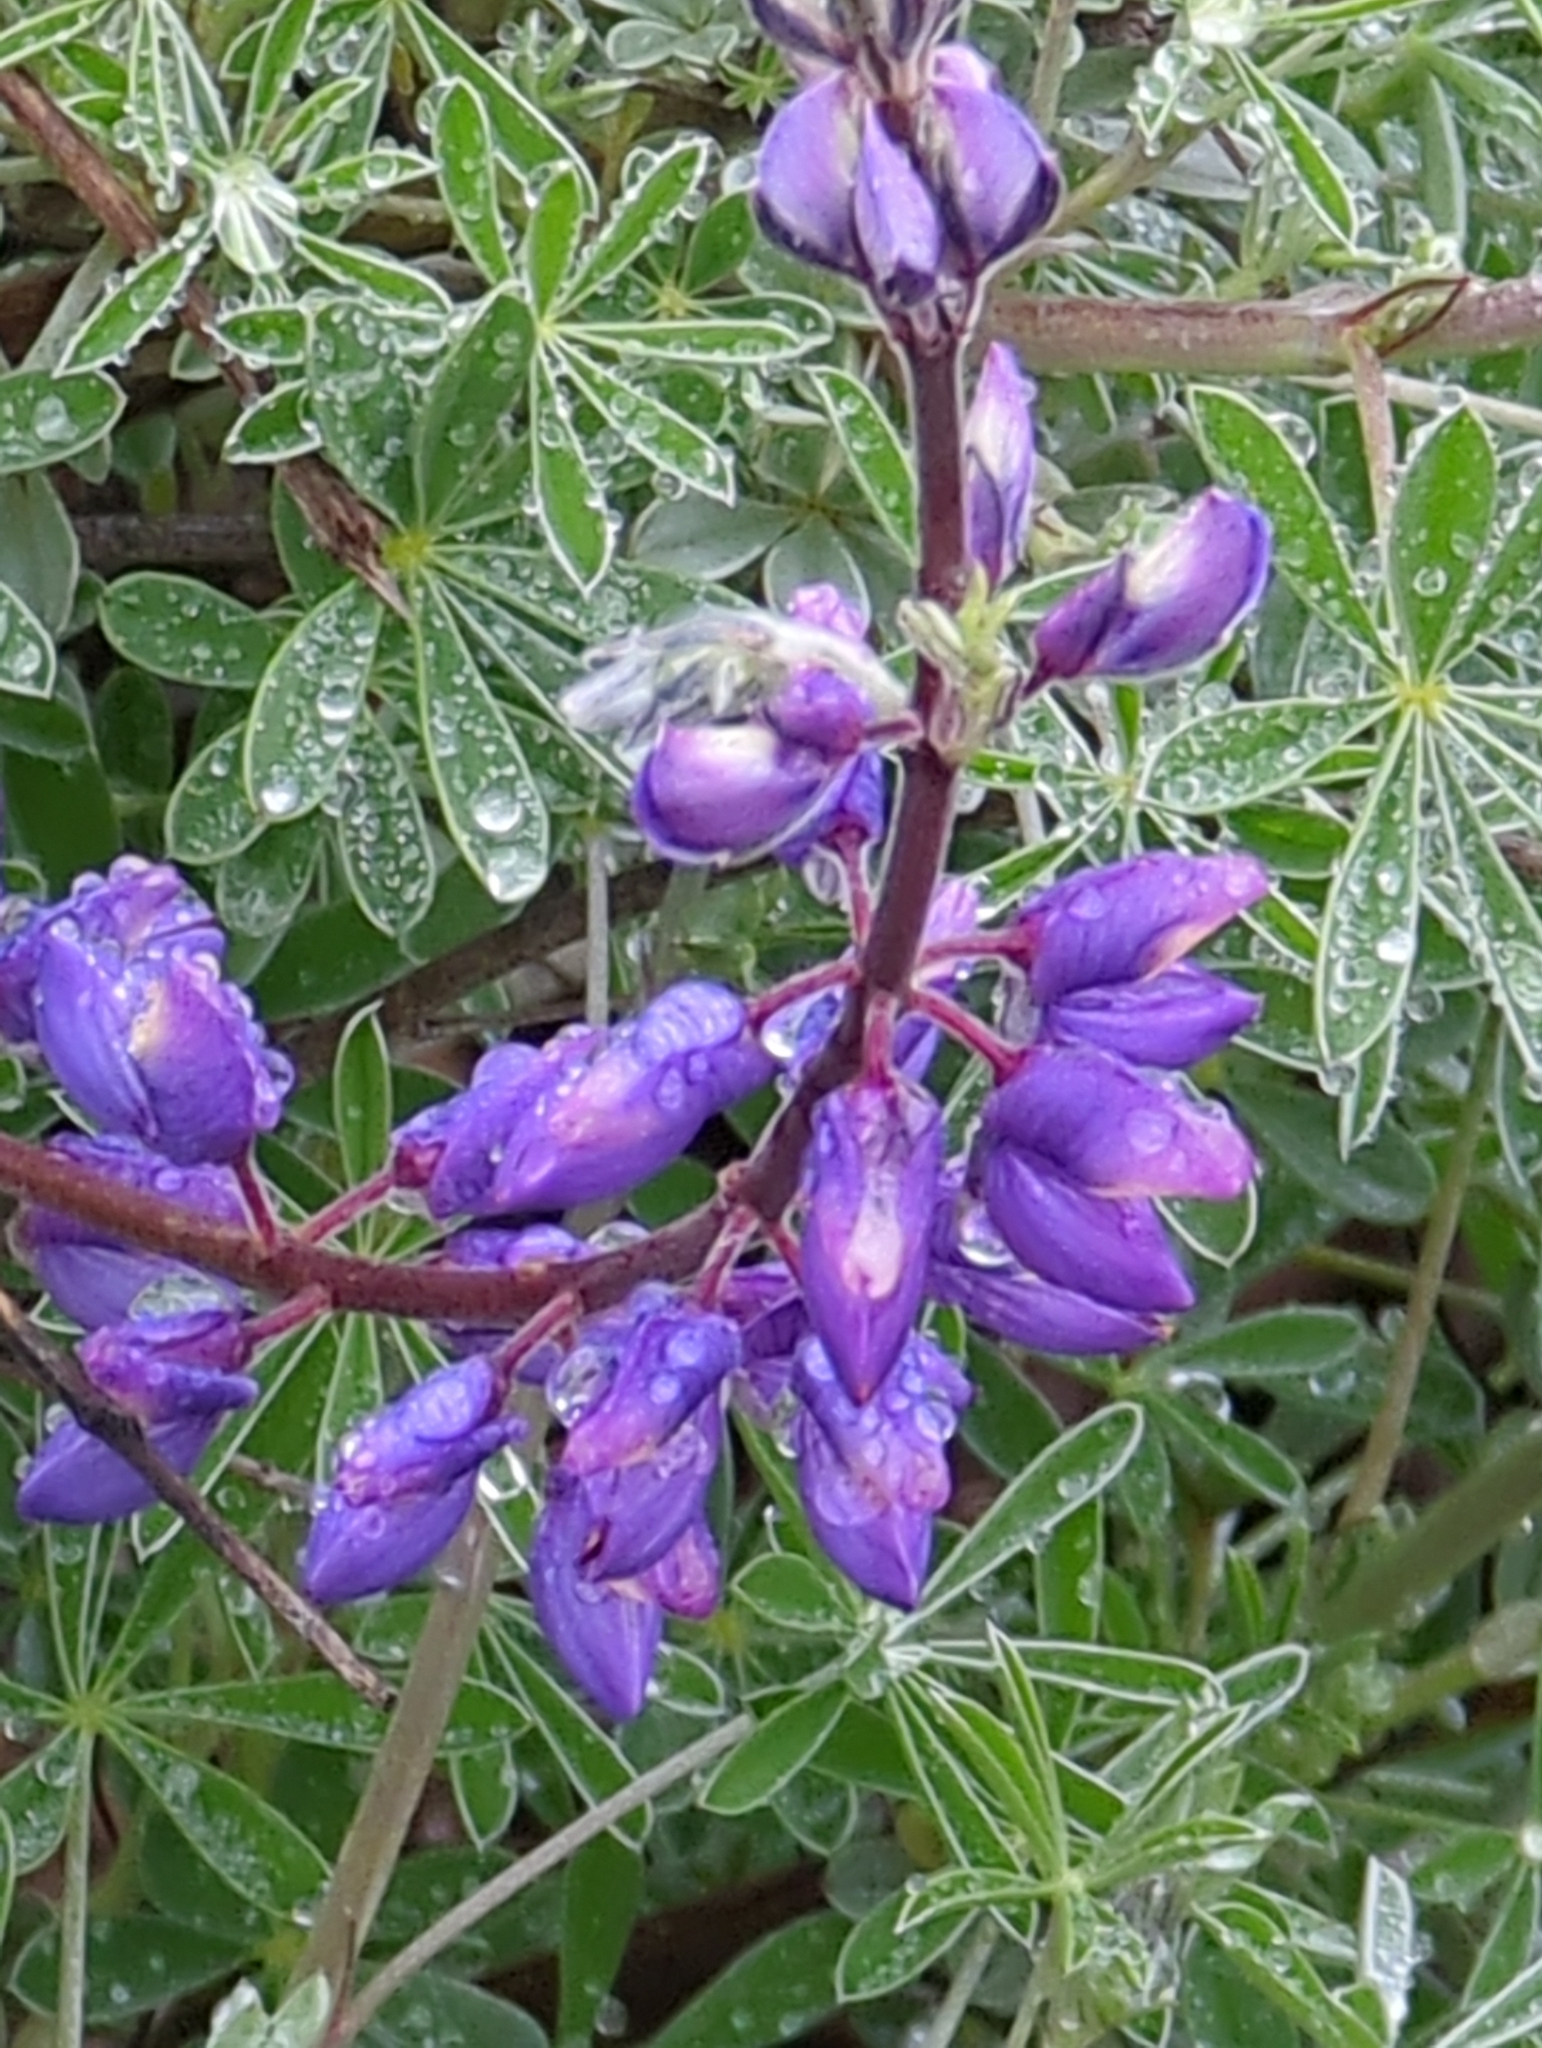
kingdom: Plantae
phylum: Tracheophyta
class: Magnoliopsida
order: Fabales
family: Fabaceae
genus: Lupinus
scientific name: Lupinus albifrons
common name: Foothill lupine
